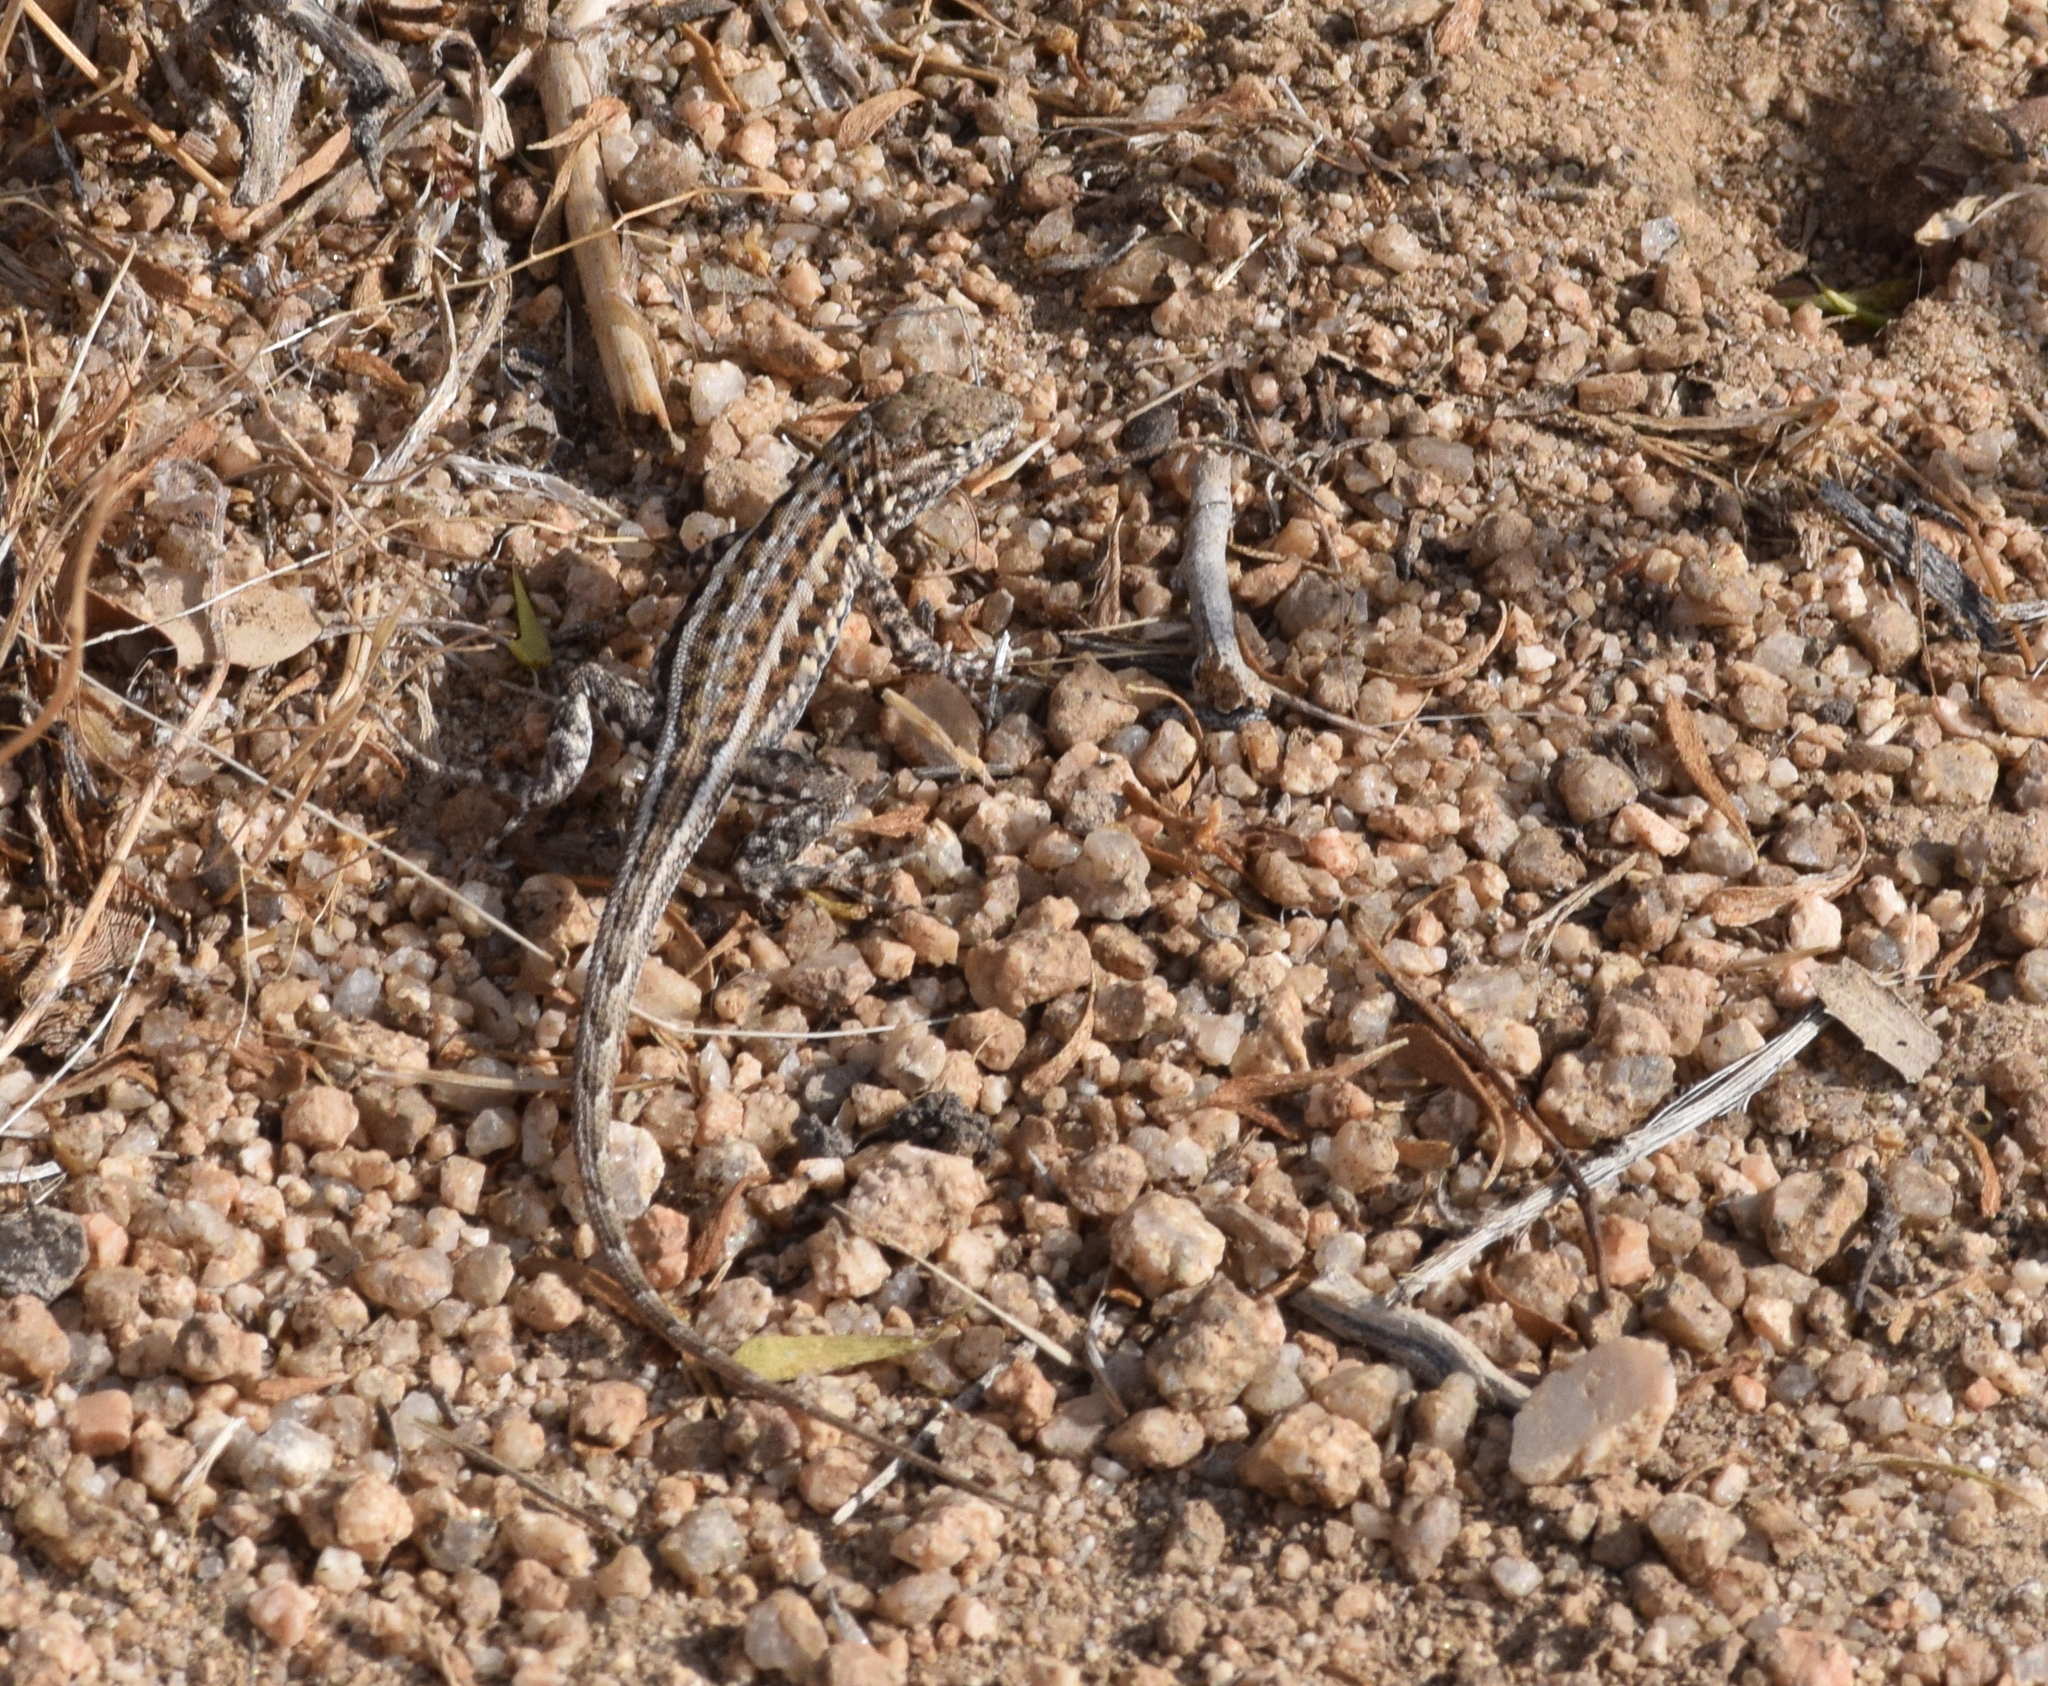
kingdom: Animalia
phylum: Chordata
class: Squamata
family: Phrynosomatidae
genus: Uta
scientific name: Uta stansburiana
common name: Side-blotched lizard
